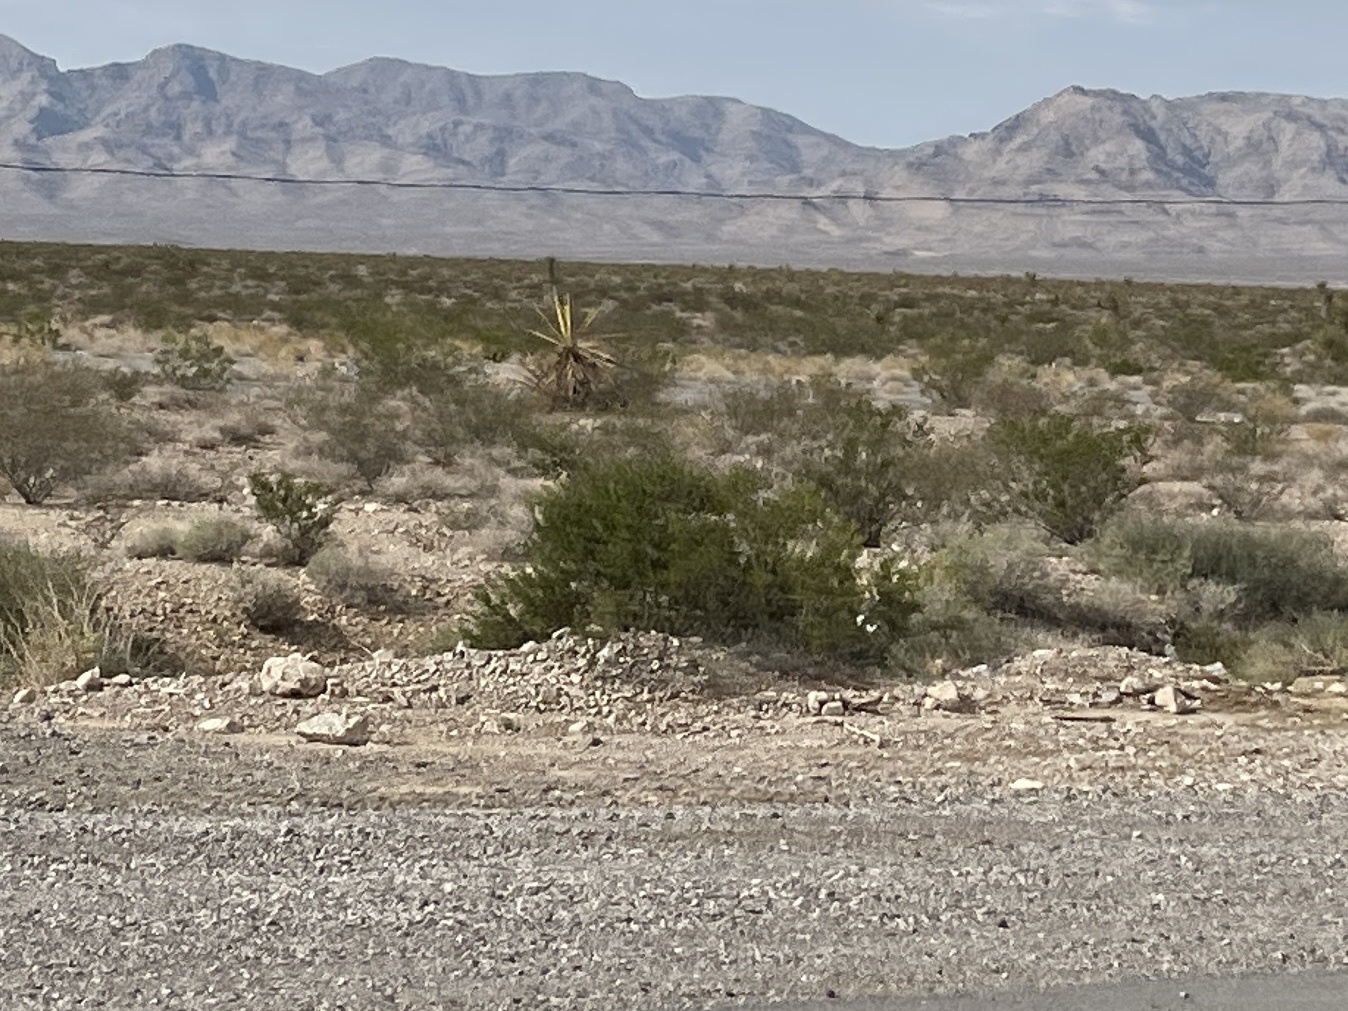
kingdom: Plantae
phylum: Tracheophyta
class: Magnoliopsida
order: Zygophyllales
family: Zygophyllaceae
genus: Larrea
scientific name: Larrea tridentata
